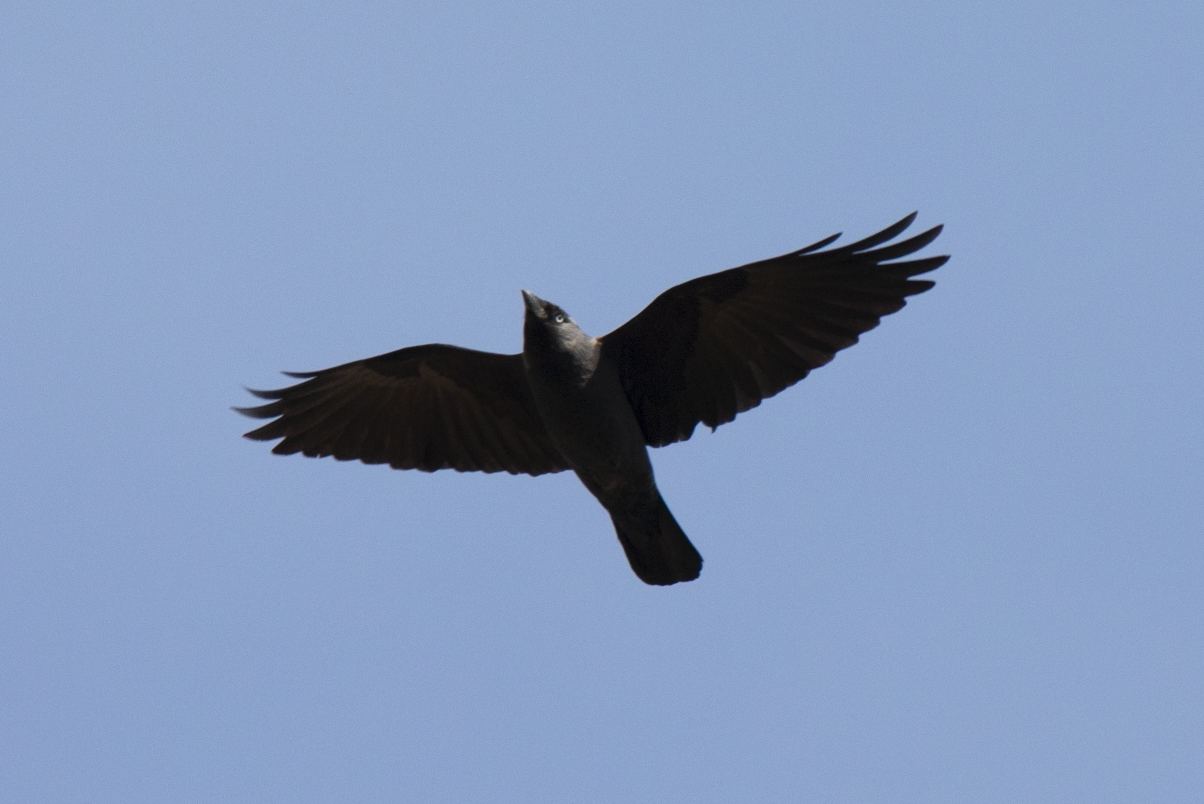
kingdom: Animalia
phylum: Chordata
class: Aves
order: Passeriformes
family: Corvidae
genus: Coloeus
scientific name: Coloeus monedula
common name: Western jackdaw
